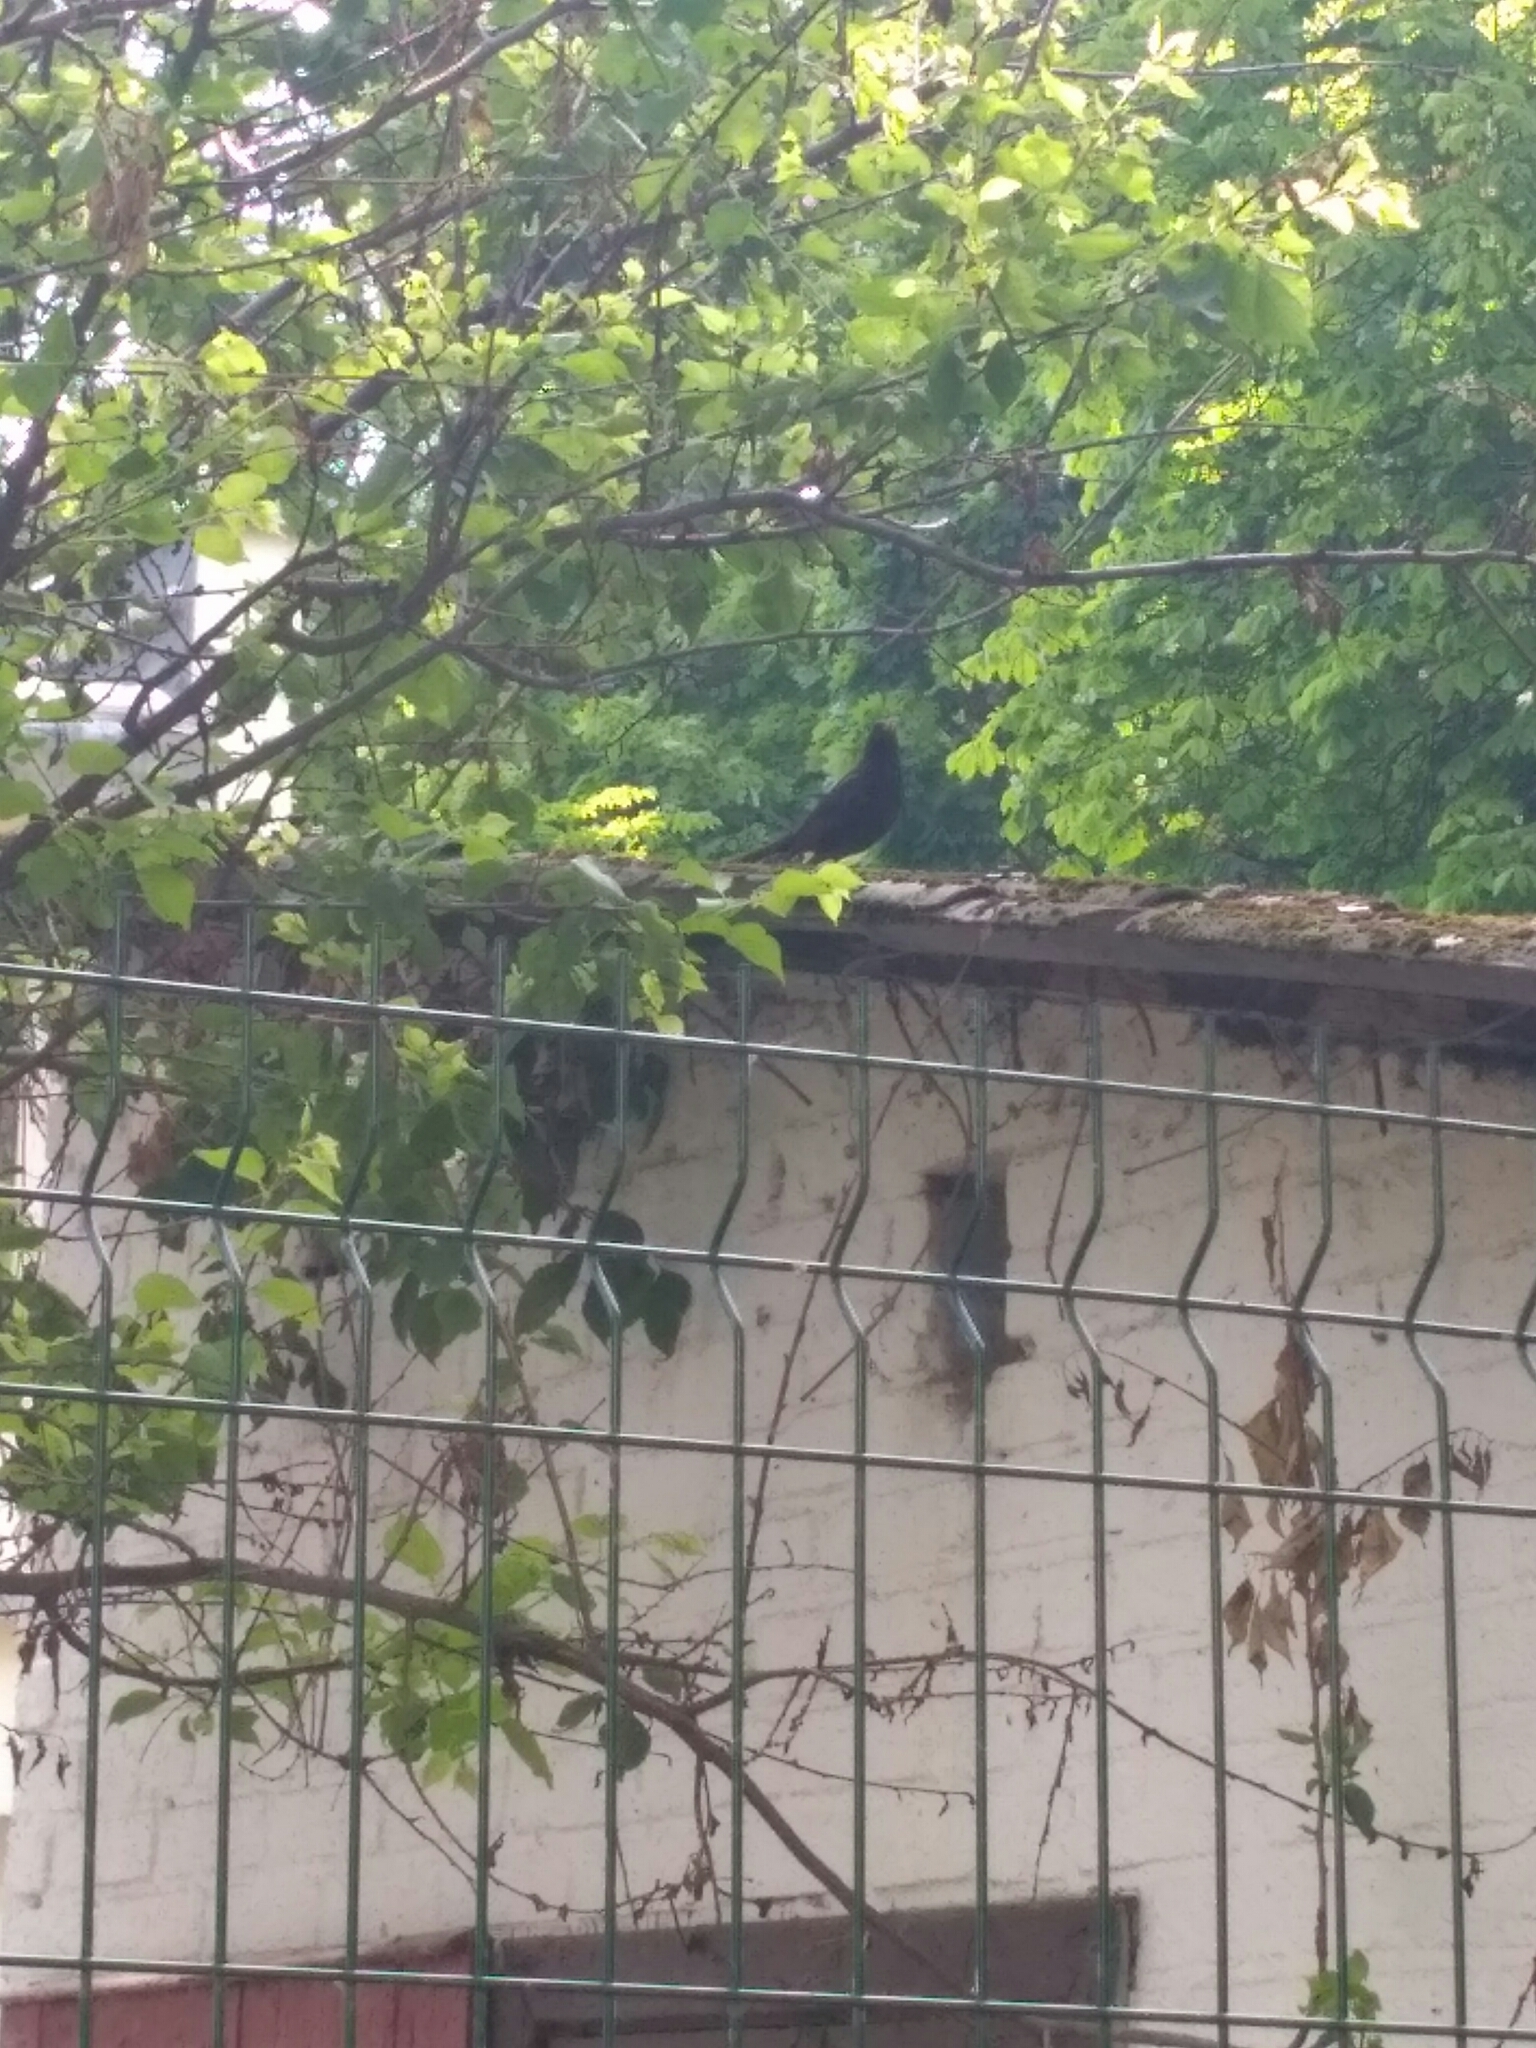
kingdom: Animalia
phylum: Chordata
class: Aves
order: Passeriformes
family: Turdidae
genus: Turdus
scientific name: Turdus merula
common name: Common blackbird
